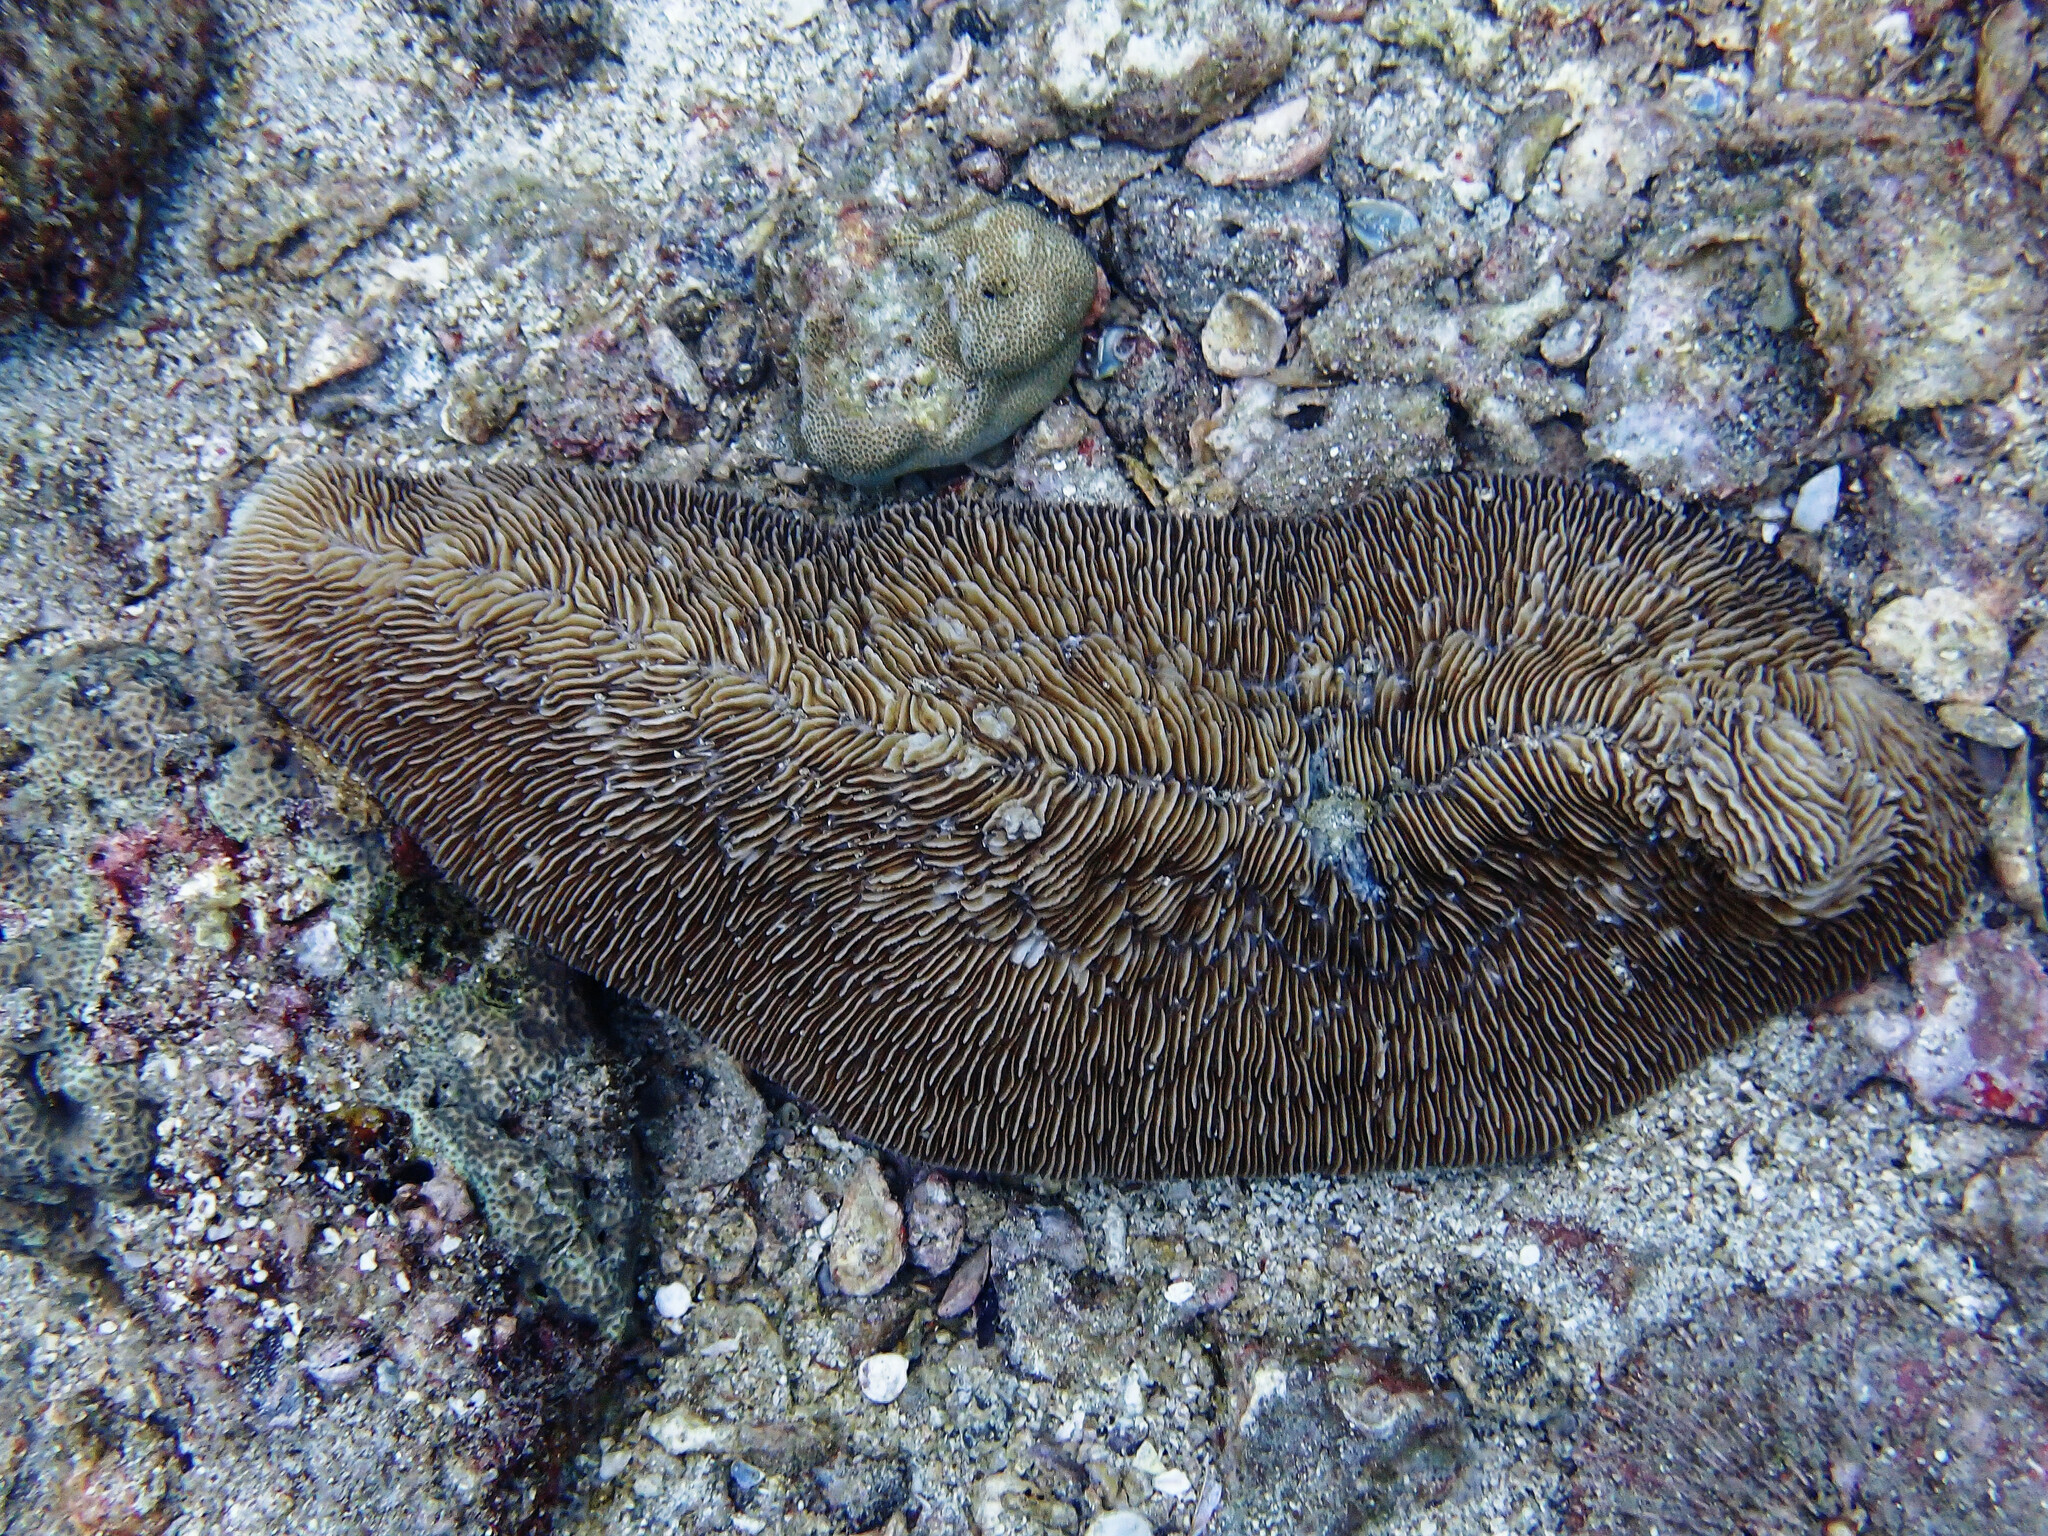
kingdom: Animalia
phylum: Cnidaria
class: Anthozoa
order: Scleractinia
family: Fungiidae
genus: Herpolitha
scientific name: Herpolitha limax
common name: Striate boomerang coral
